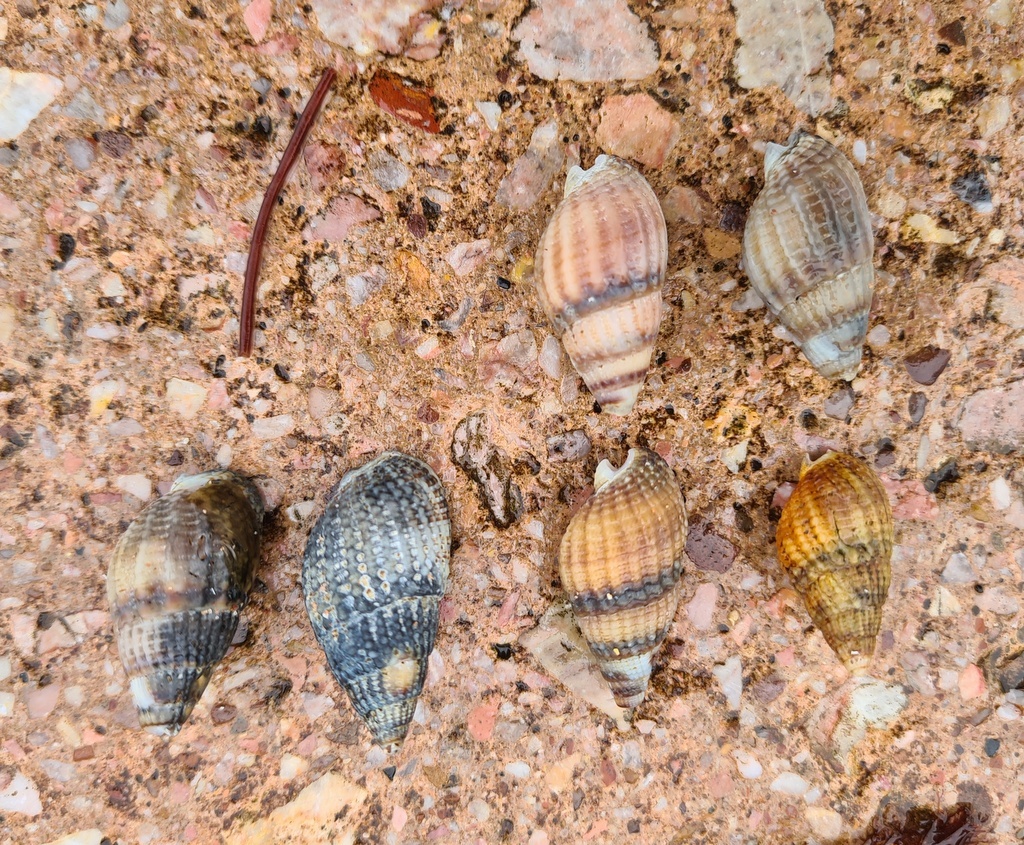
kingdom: Animalia
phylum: Mollusca
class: Gastropoda
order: Neogastropoda
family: Nassariidae
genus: Tritia
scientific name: Tritia reticulata
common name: Netted dog whelk
